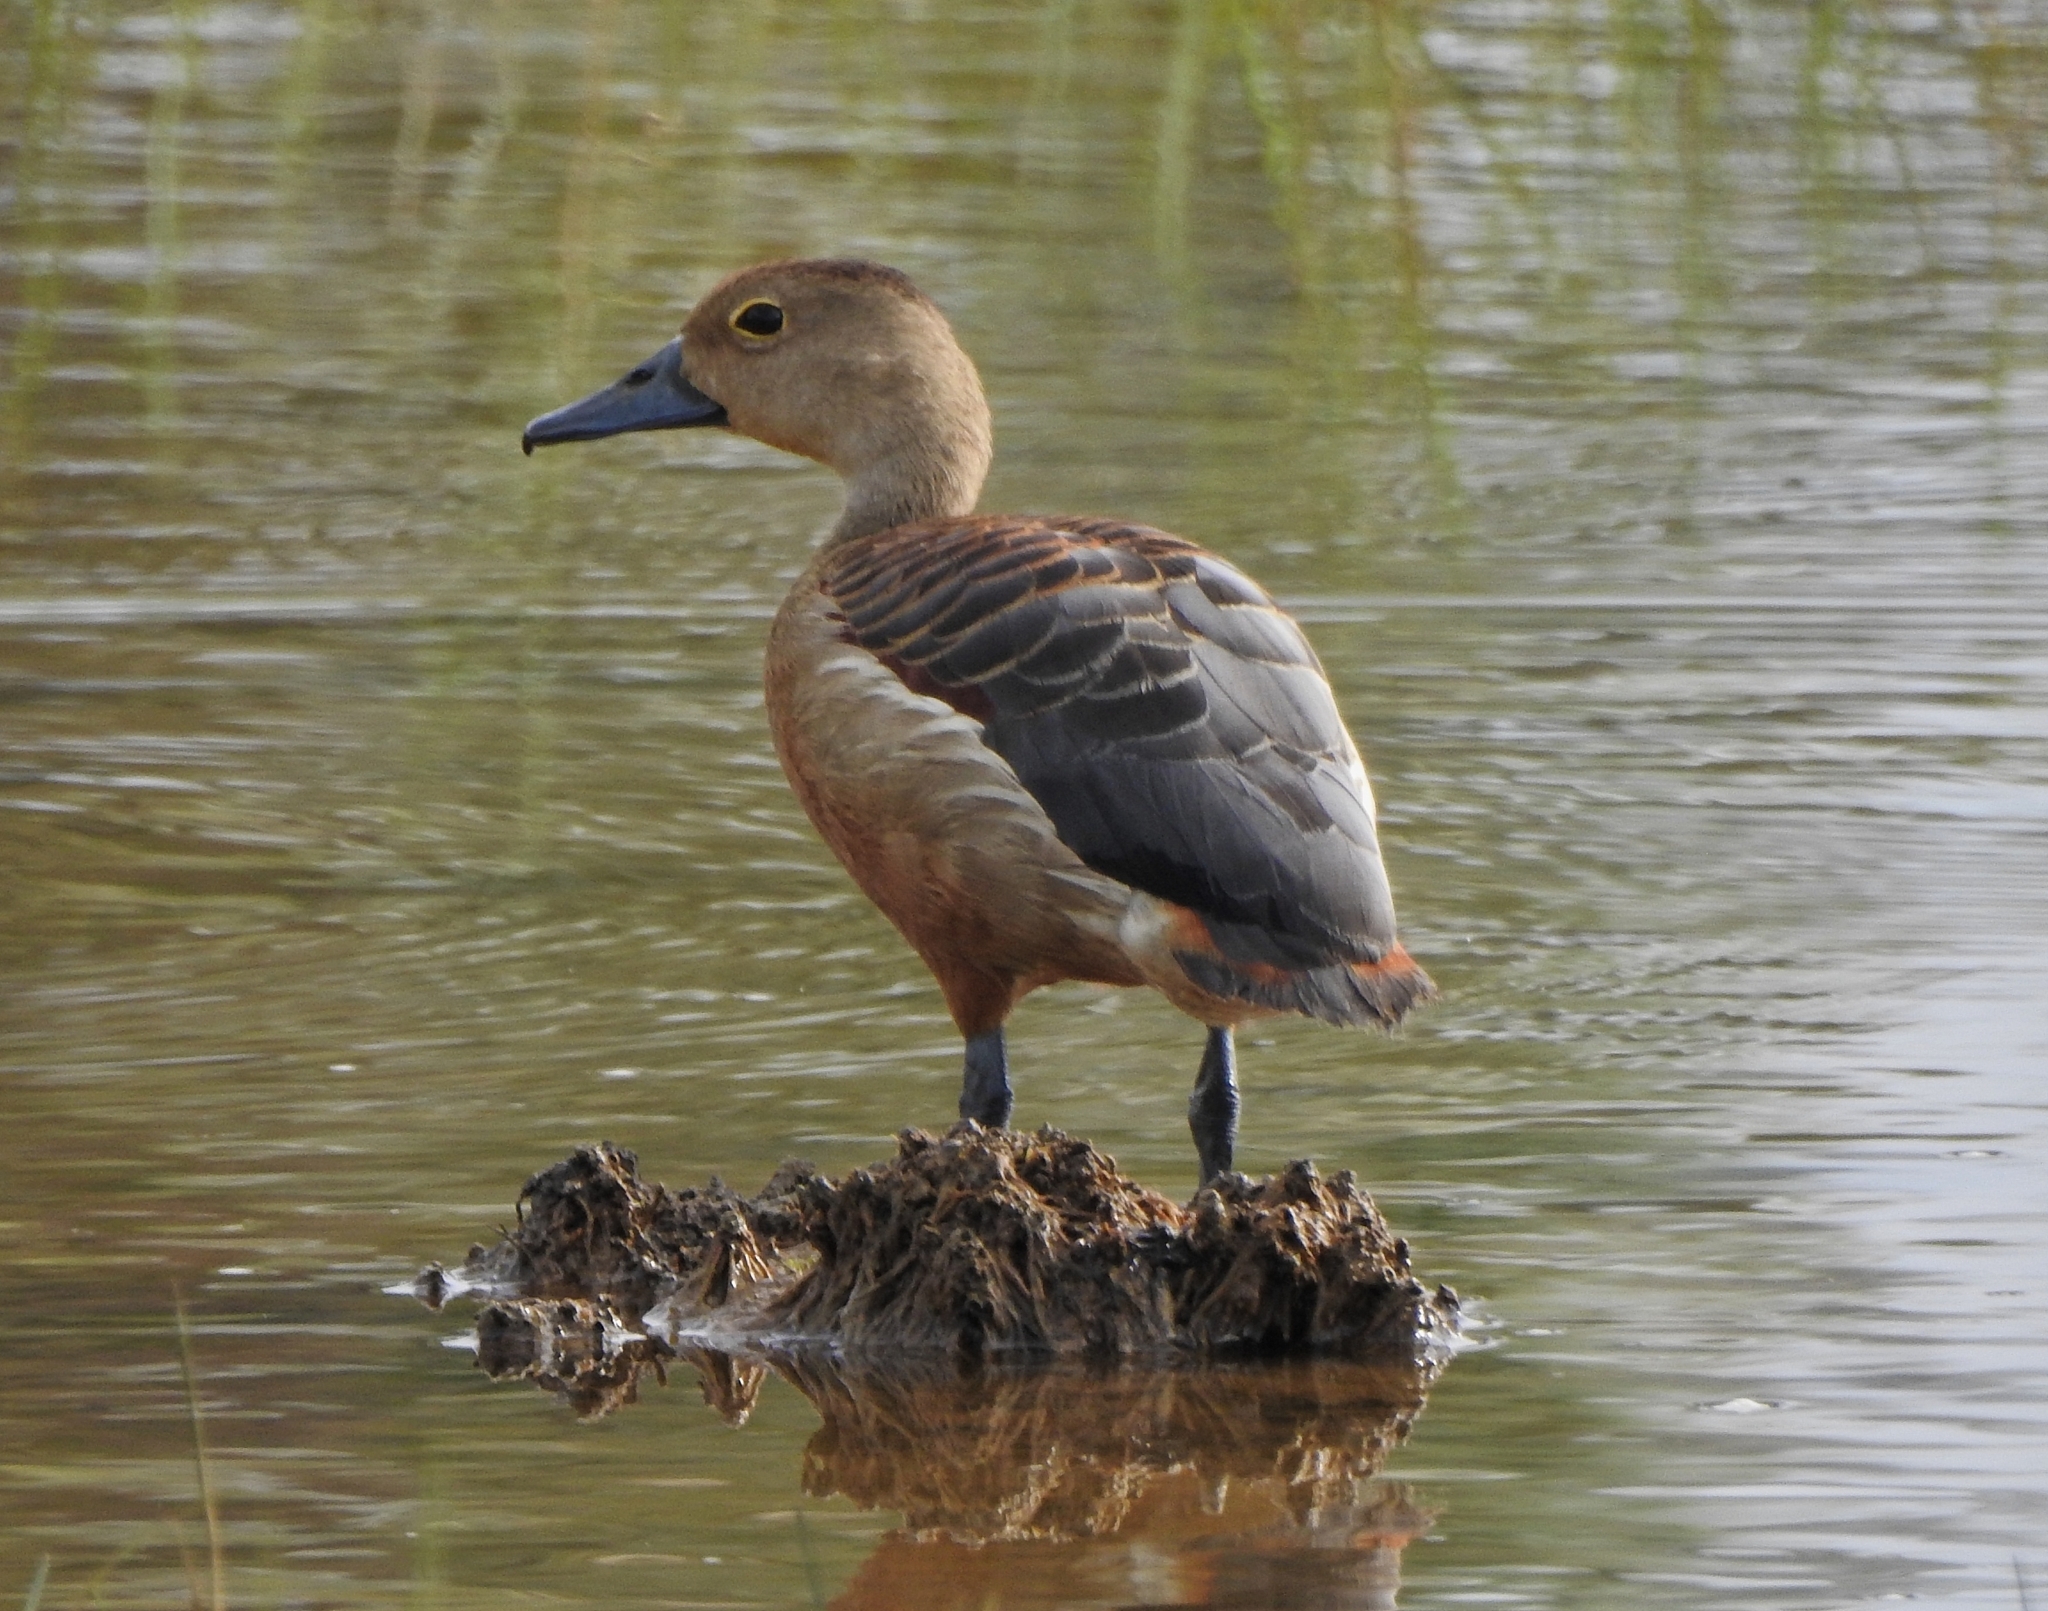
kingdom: Animalia
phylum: Chordata
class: Aves
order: Anseriformes
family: Anatidae
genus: Dendrocygna
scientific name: Dendrocygna javanica
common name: Lesser whistling-duck
